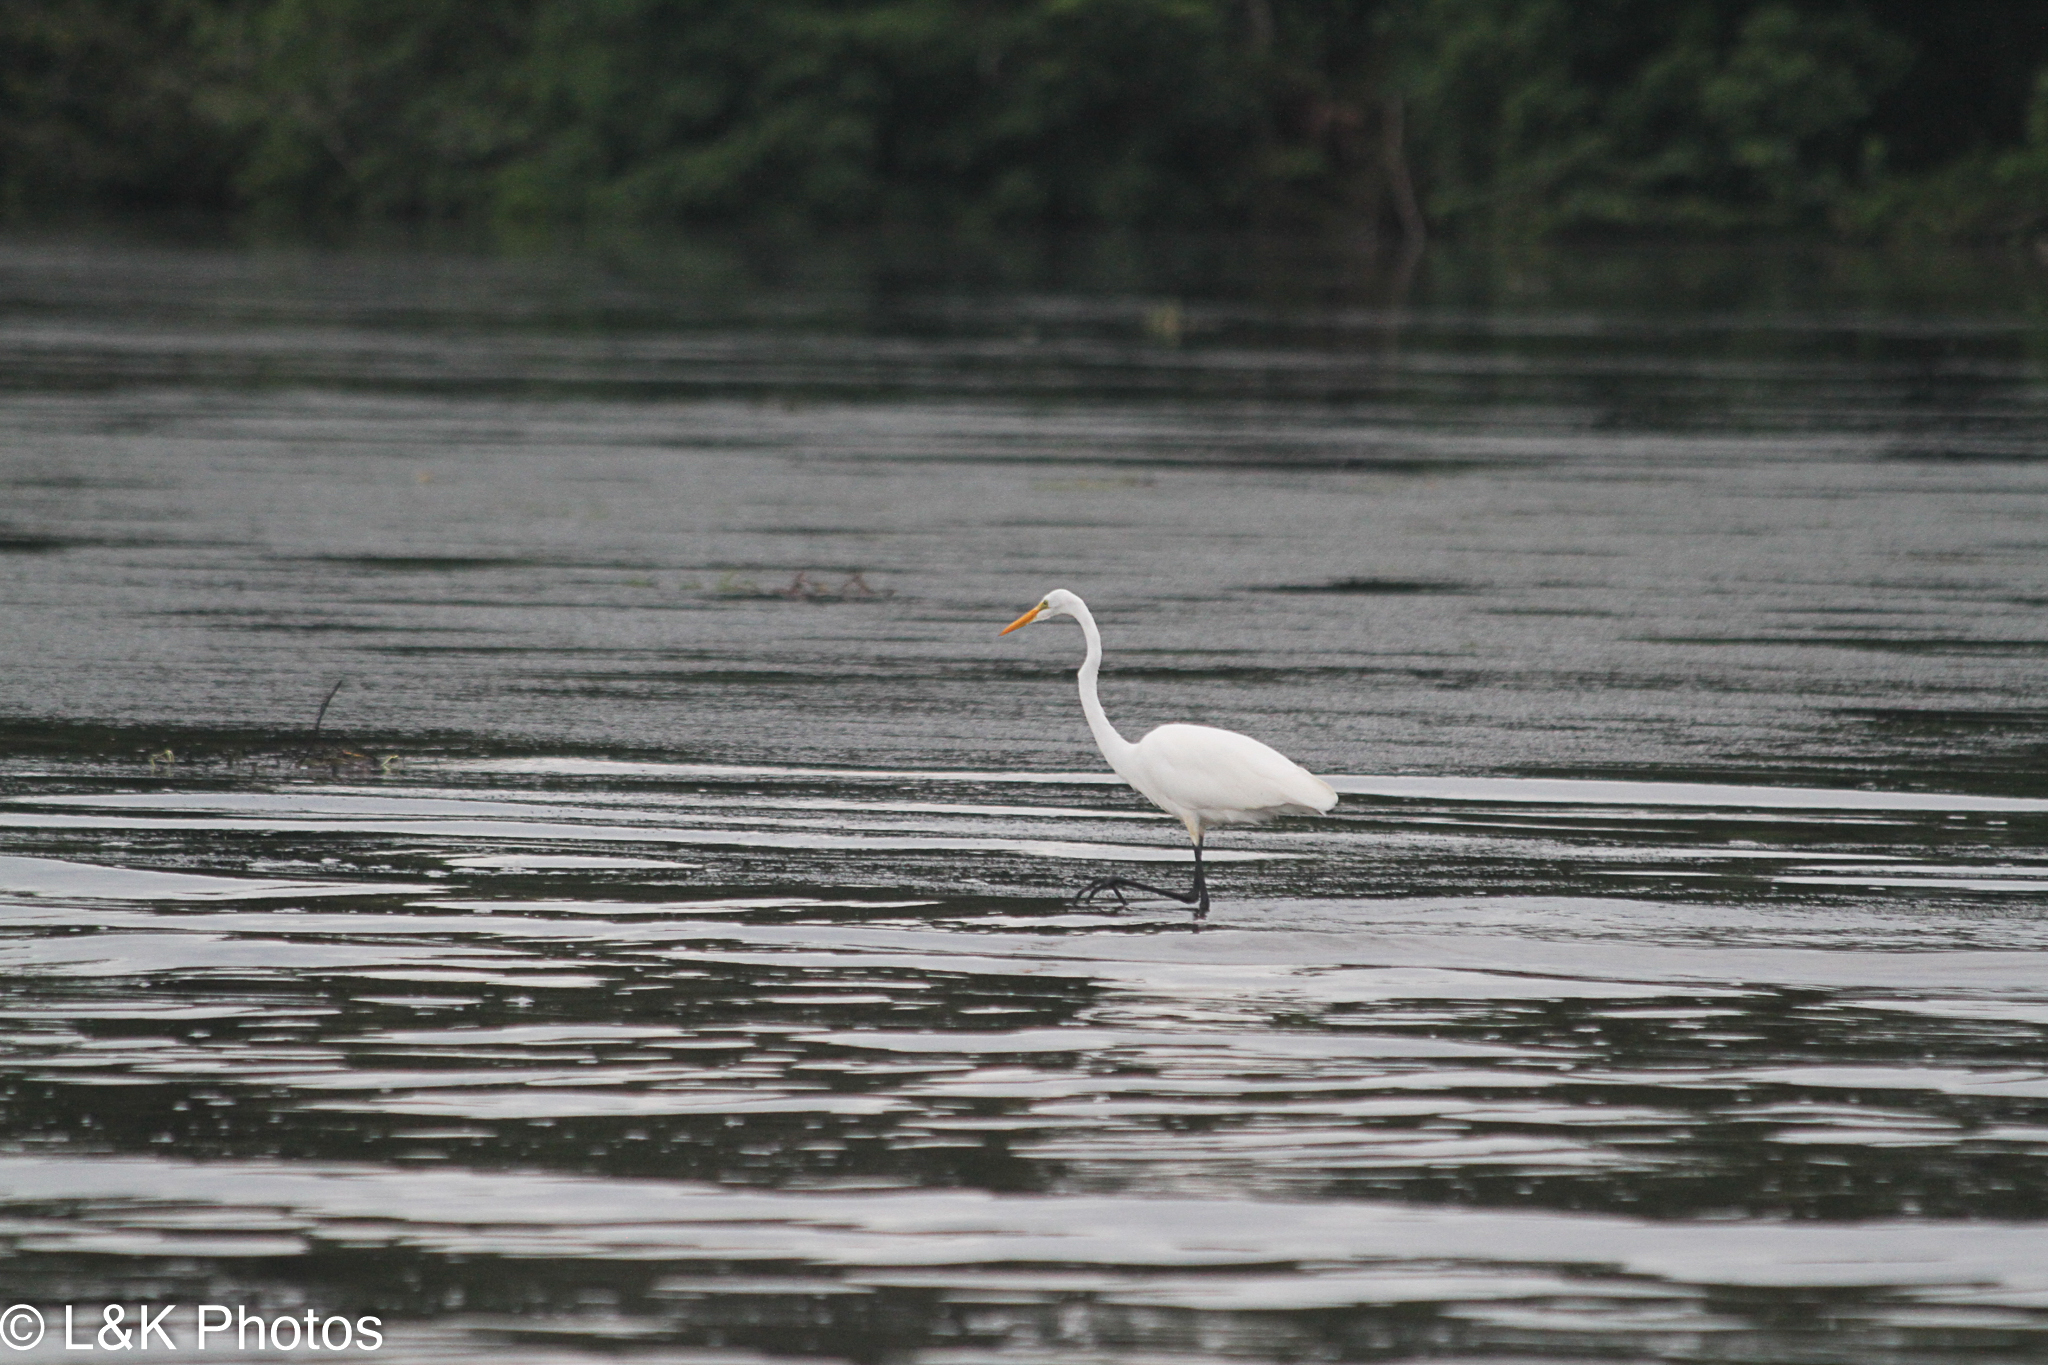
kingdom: Animalia
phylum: Chordata
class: Aves
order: Pelecaniformes
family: Ardeidae
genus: Ardea
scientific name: Ardea alba
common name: Great egret
